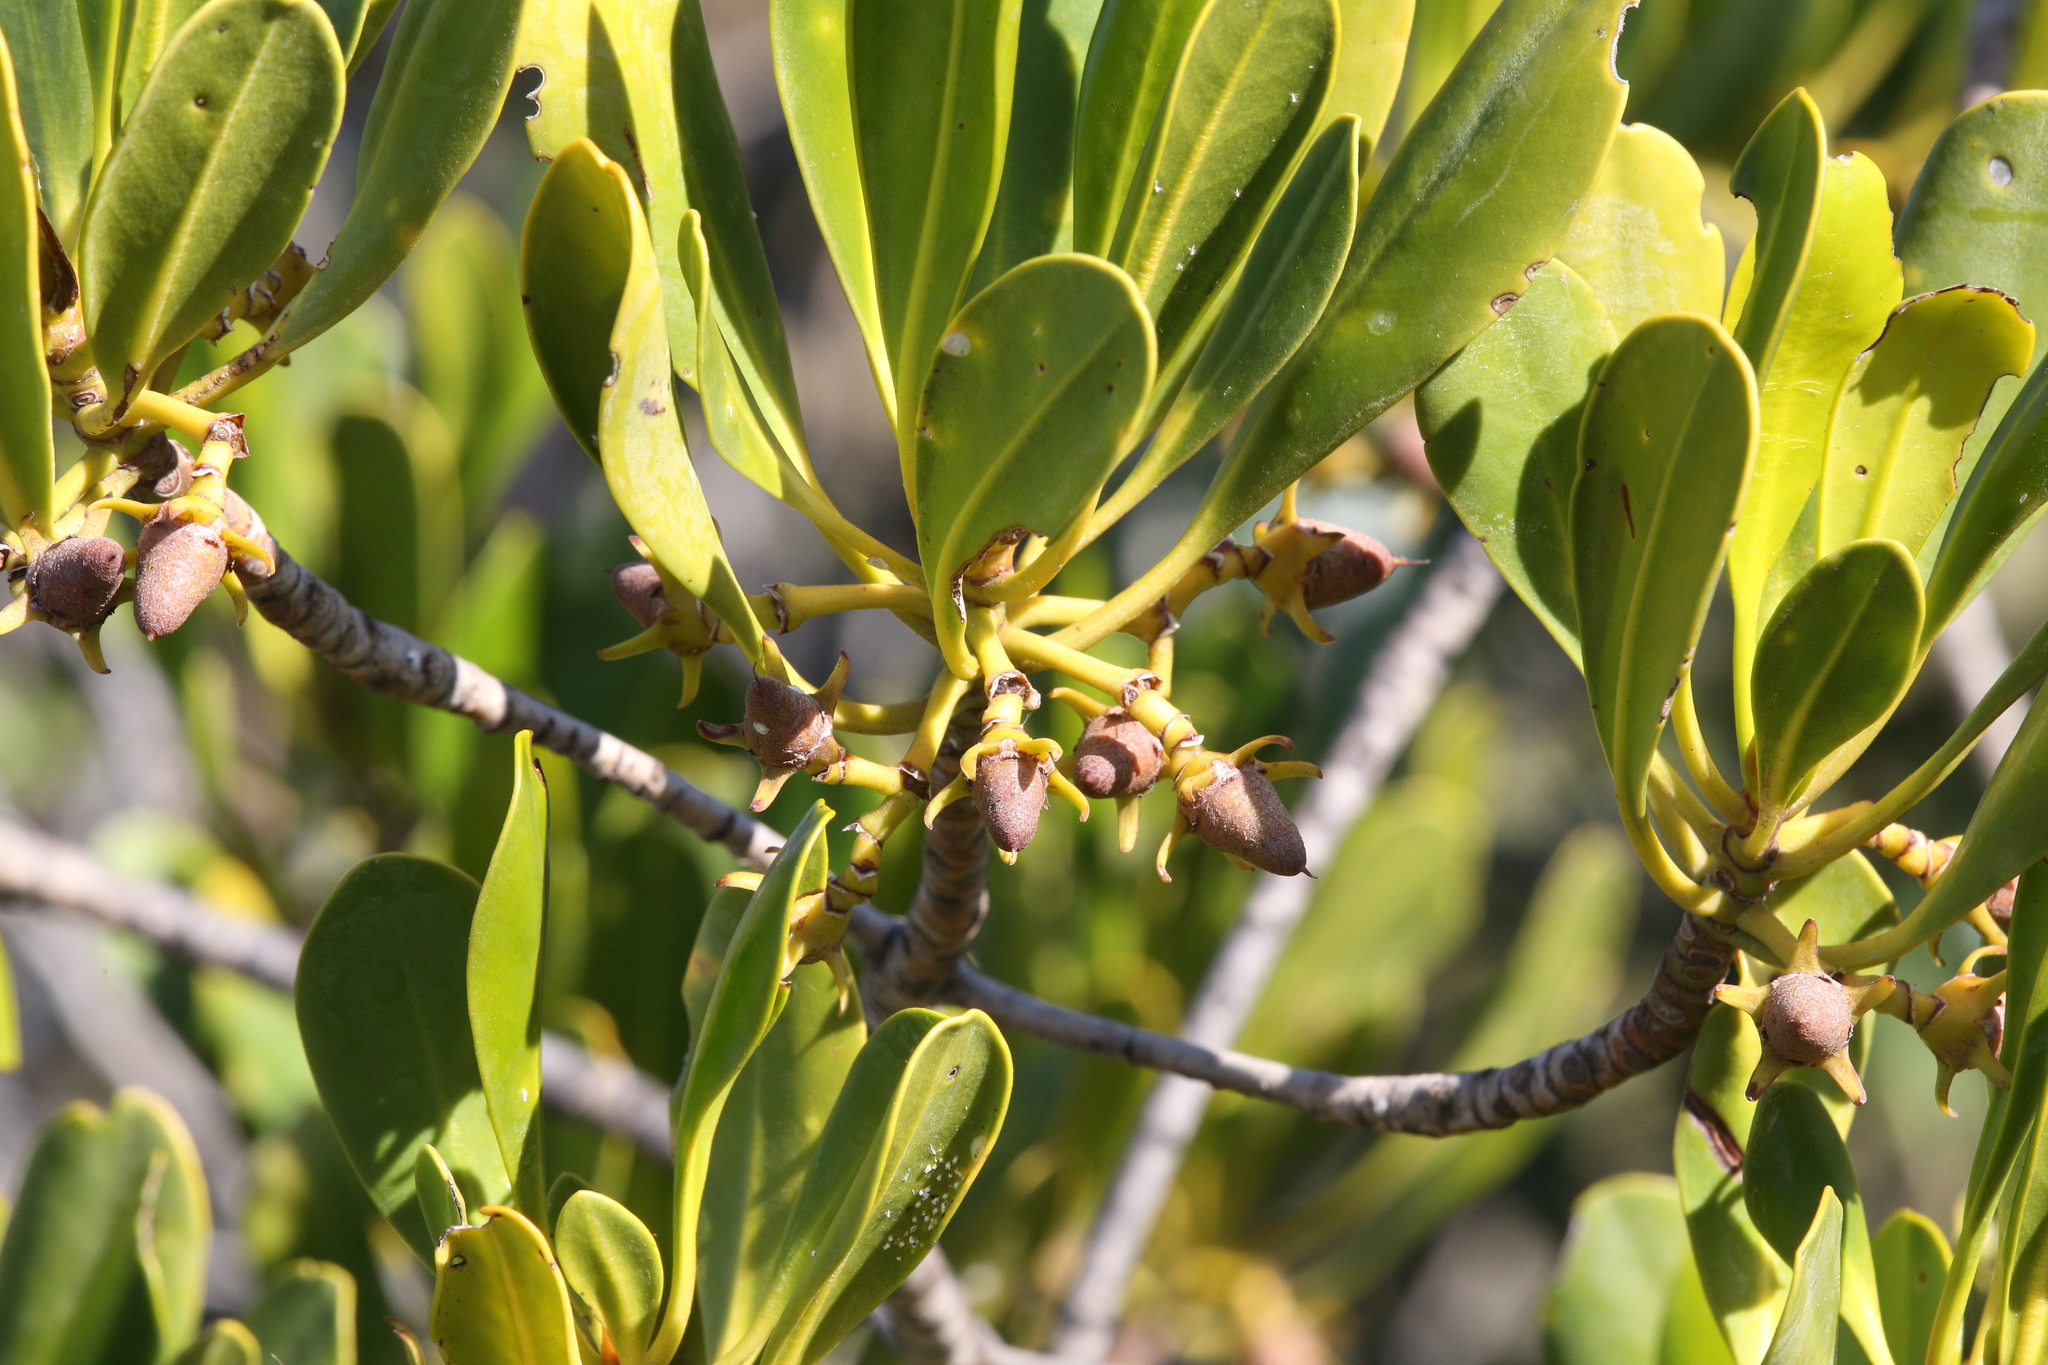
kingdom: Plantae
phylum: Tracheophyta
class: Magnoliopsida
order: Malpighiales
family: Rhizophoraceae
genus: Ceriops
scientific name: Ceriops australis
